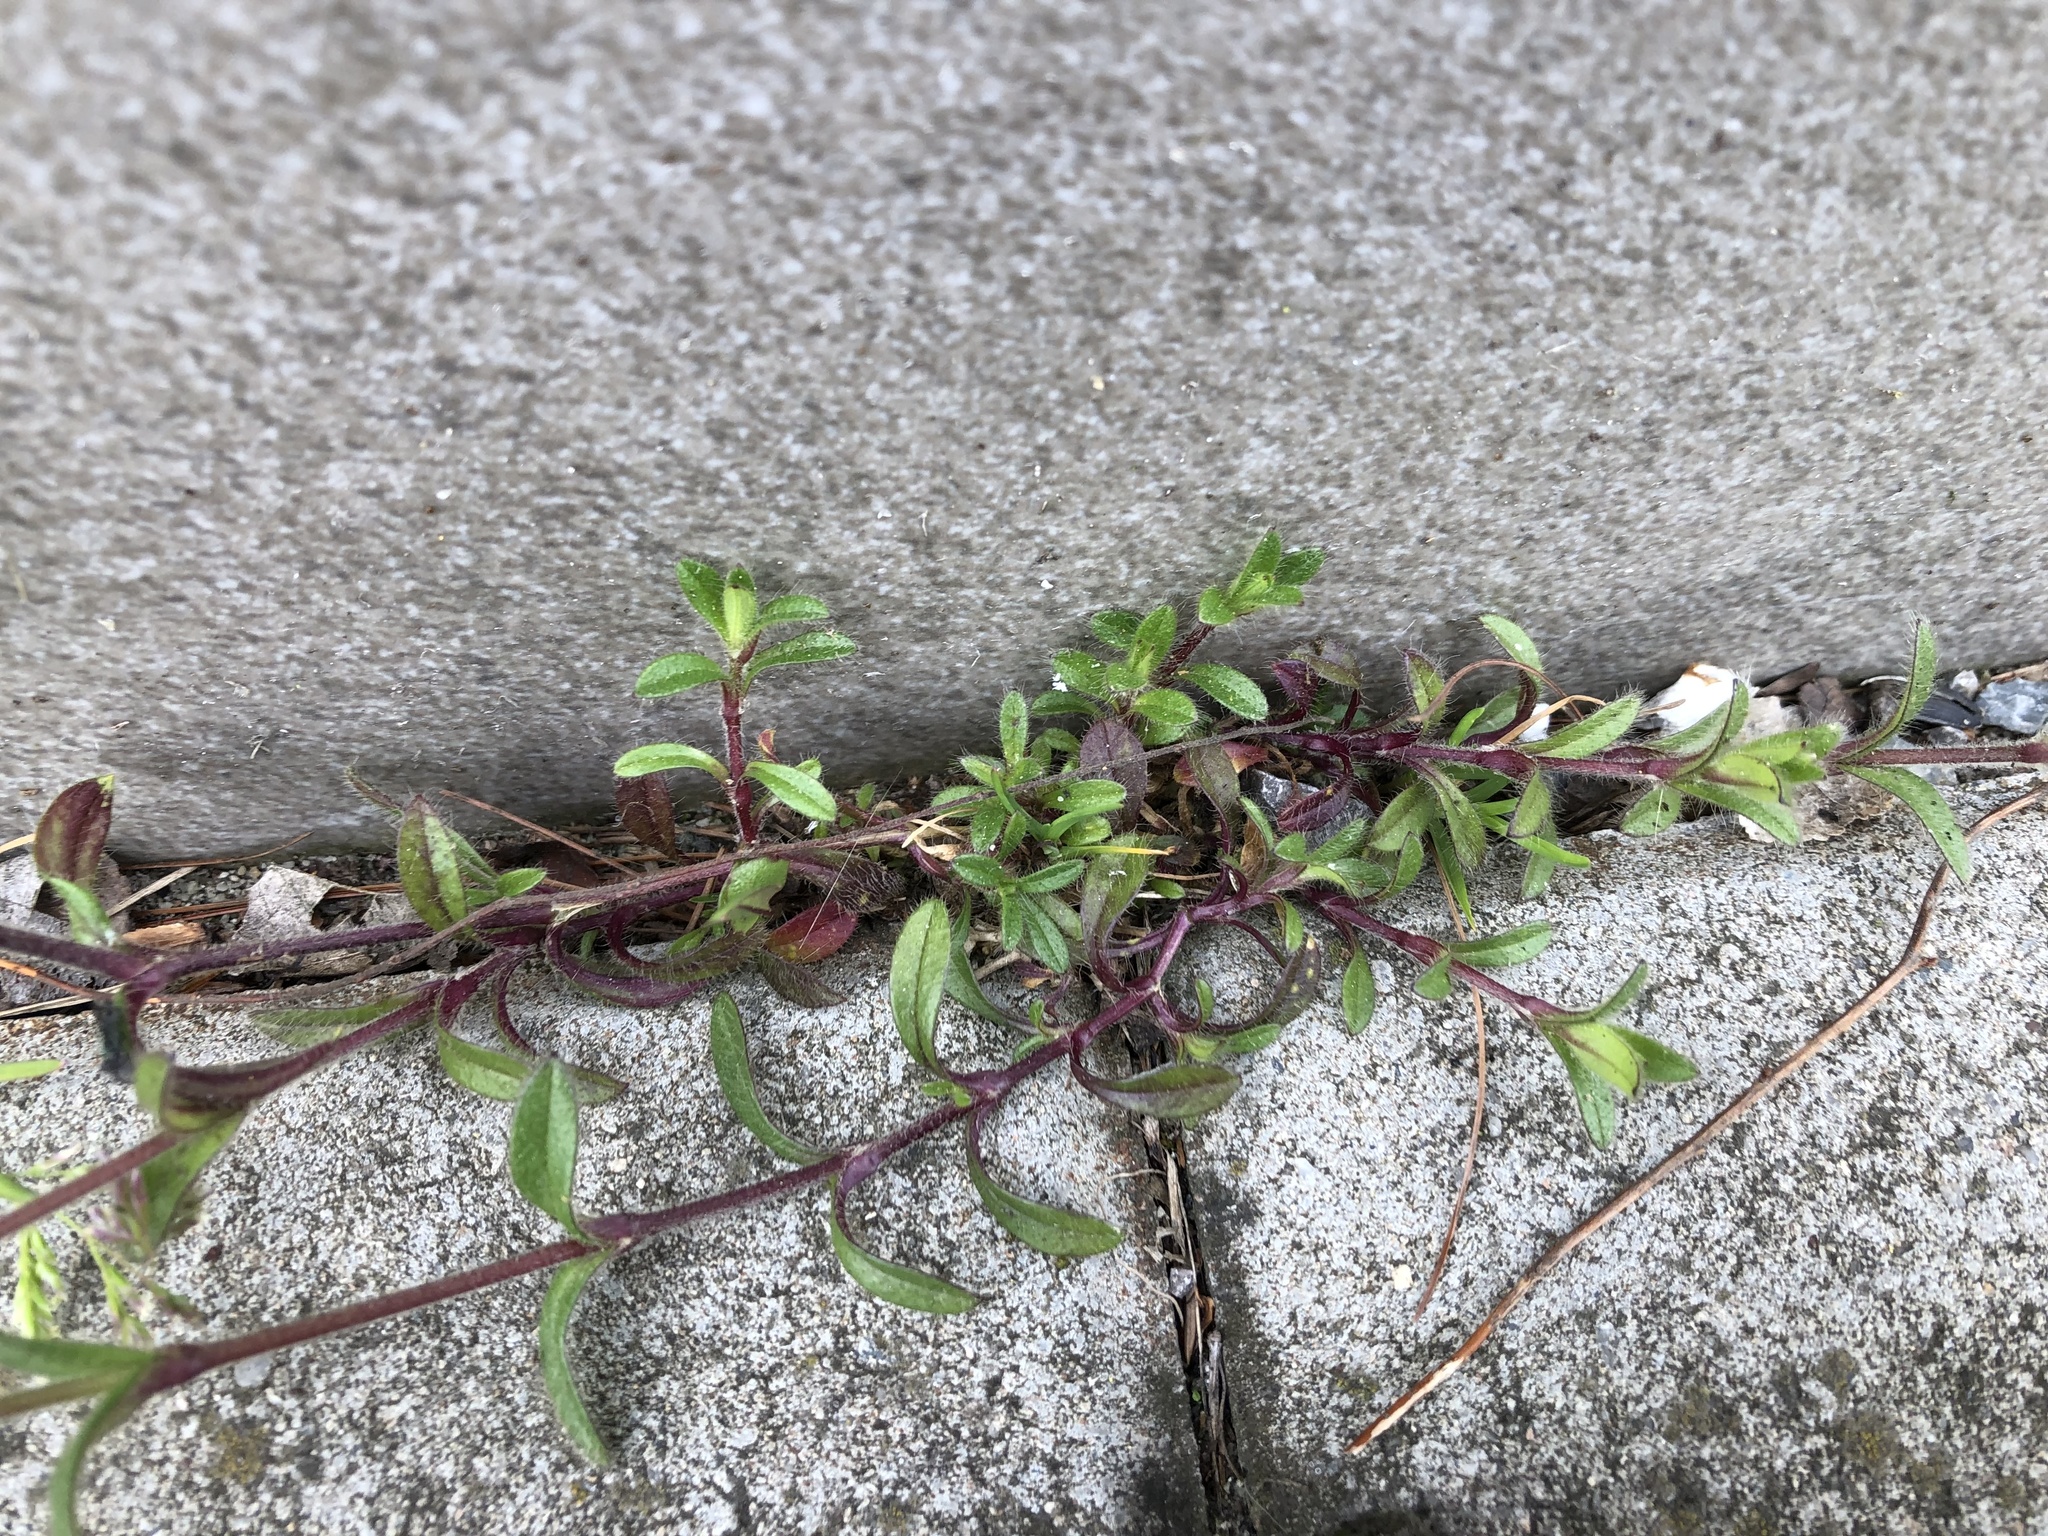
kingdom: Plantae
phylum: Tracheophyta
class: Magnoliopsida
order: Caryophyllales
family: Caryophyllaceae
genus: Cerastium
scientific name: Cerastium holosteoides
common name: Big chickweed
